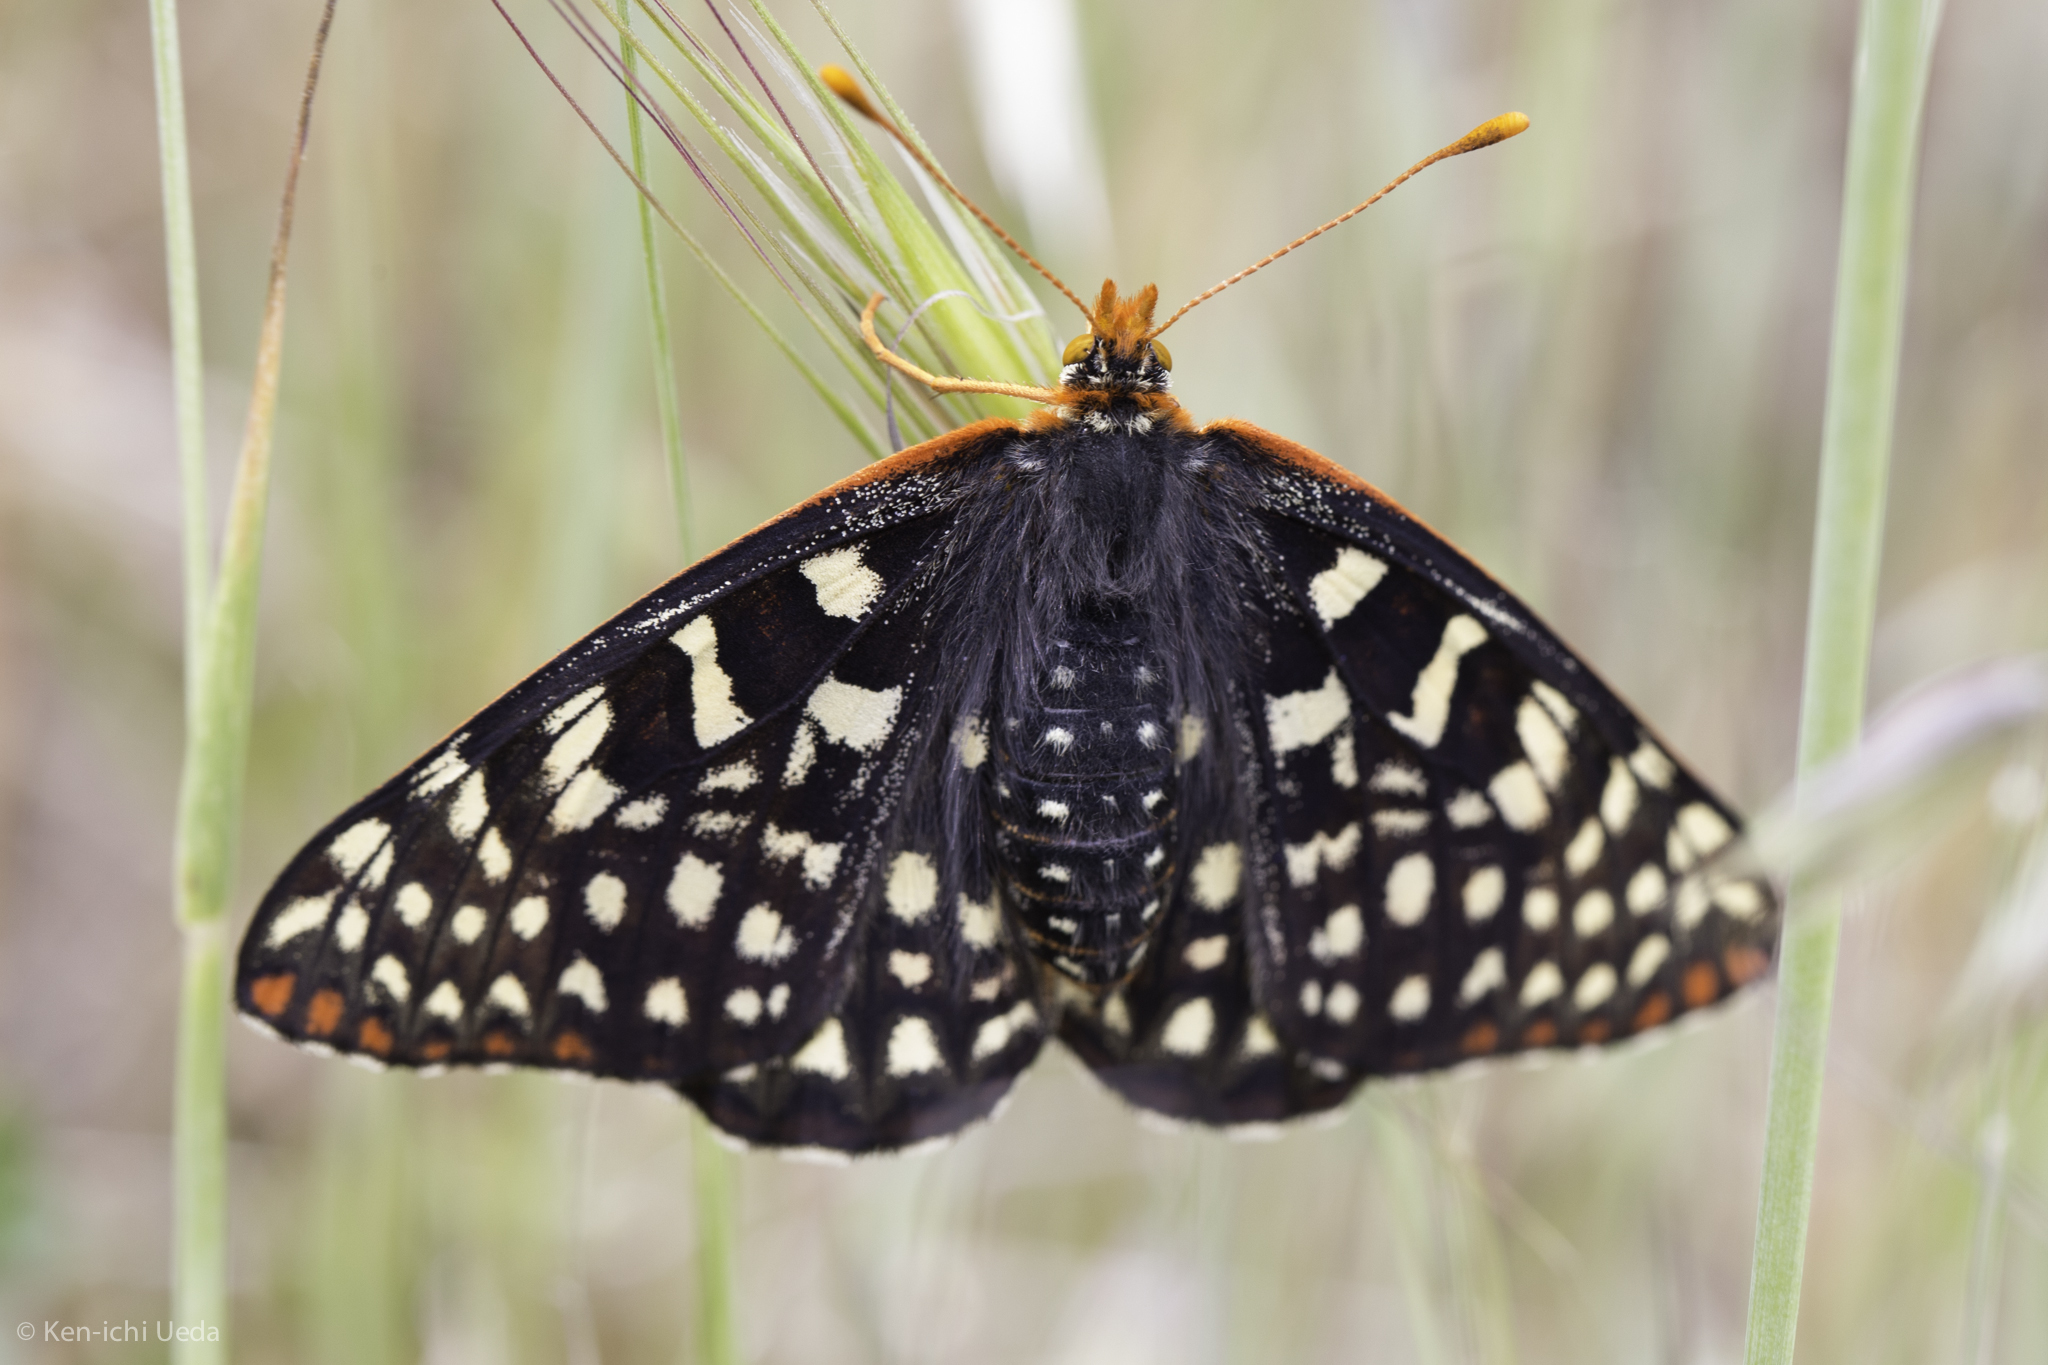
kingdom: Animalia
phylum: Arthropoda
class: Insecta
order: Lepidoptera
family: Nymphalidae
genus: Occidryas
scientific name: Occidryas chalcedona
